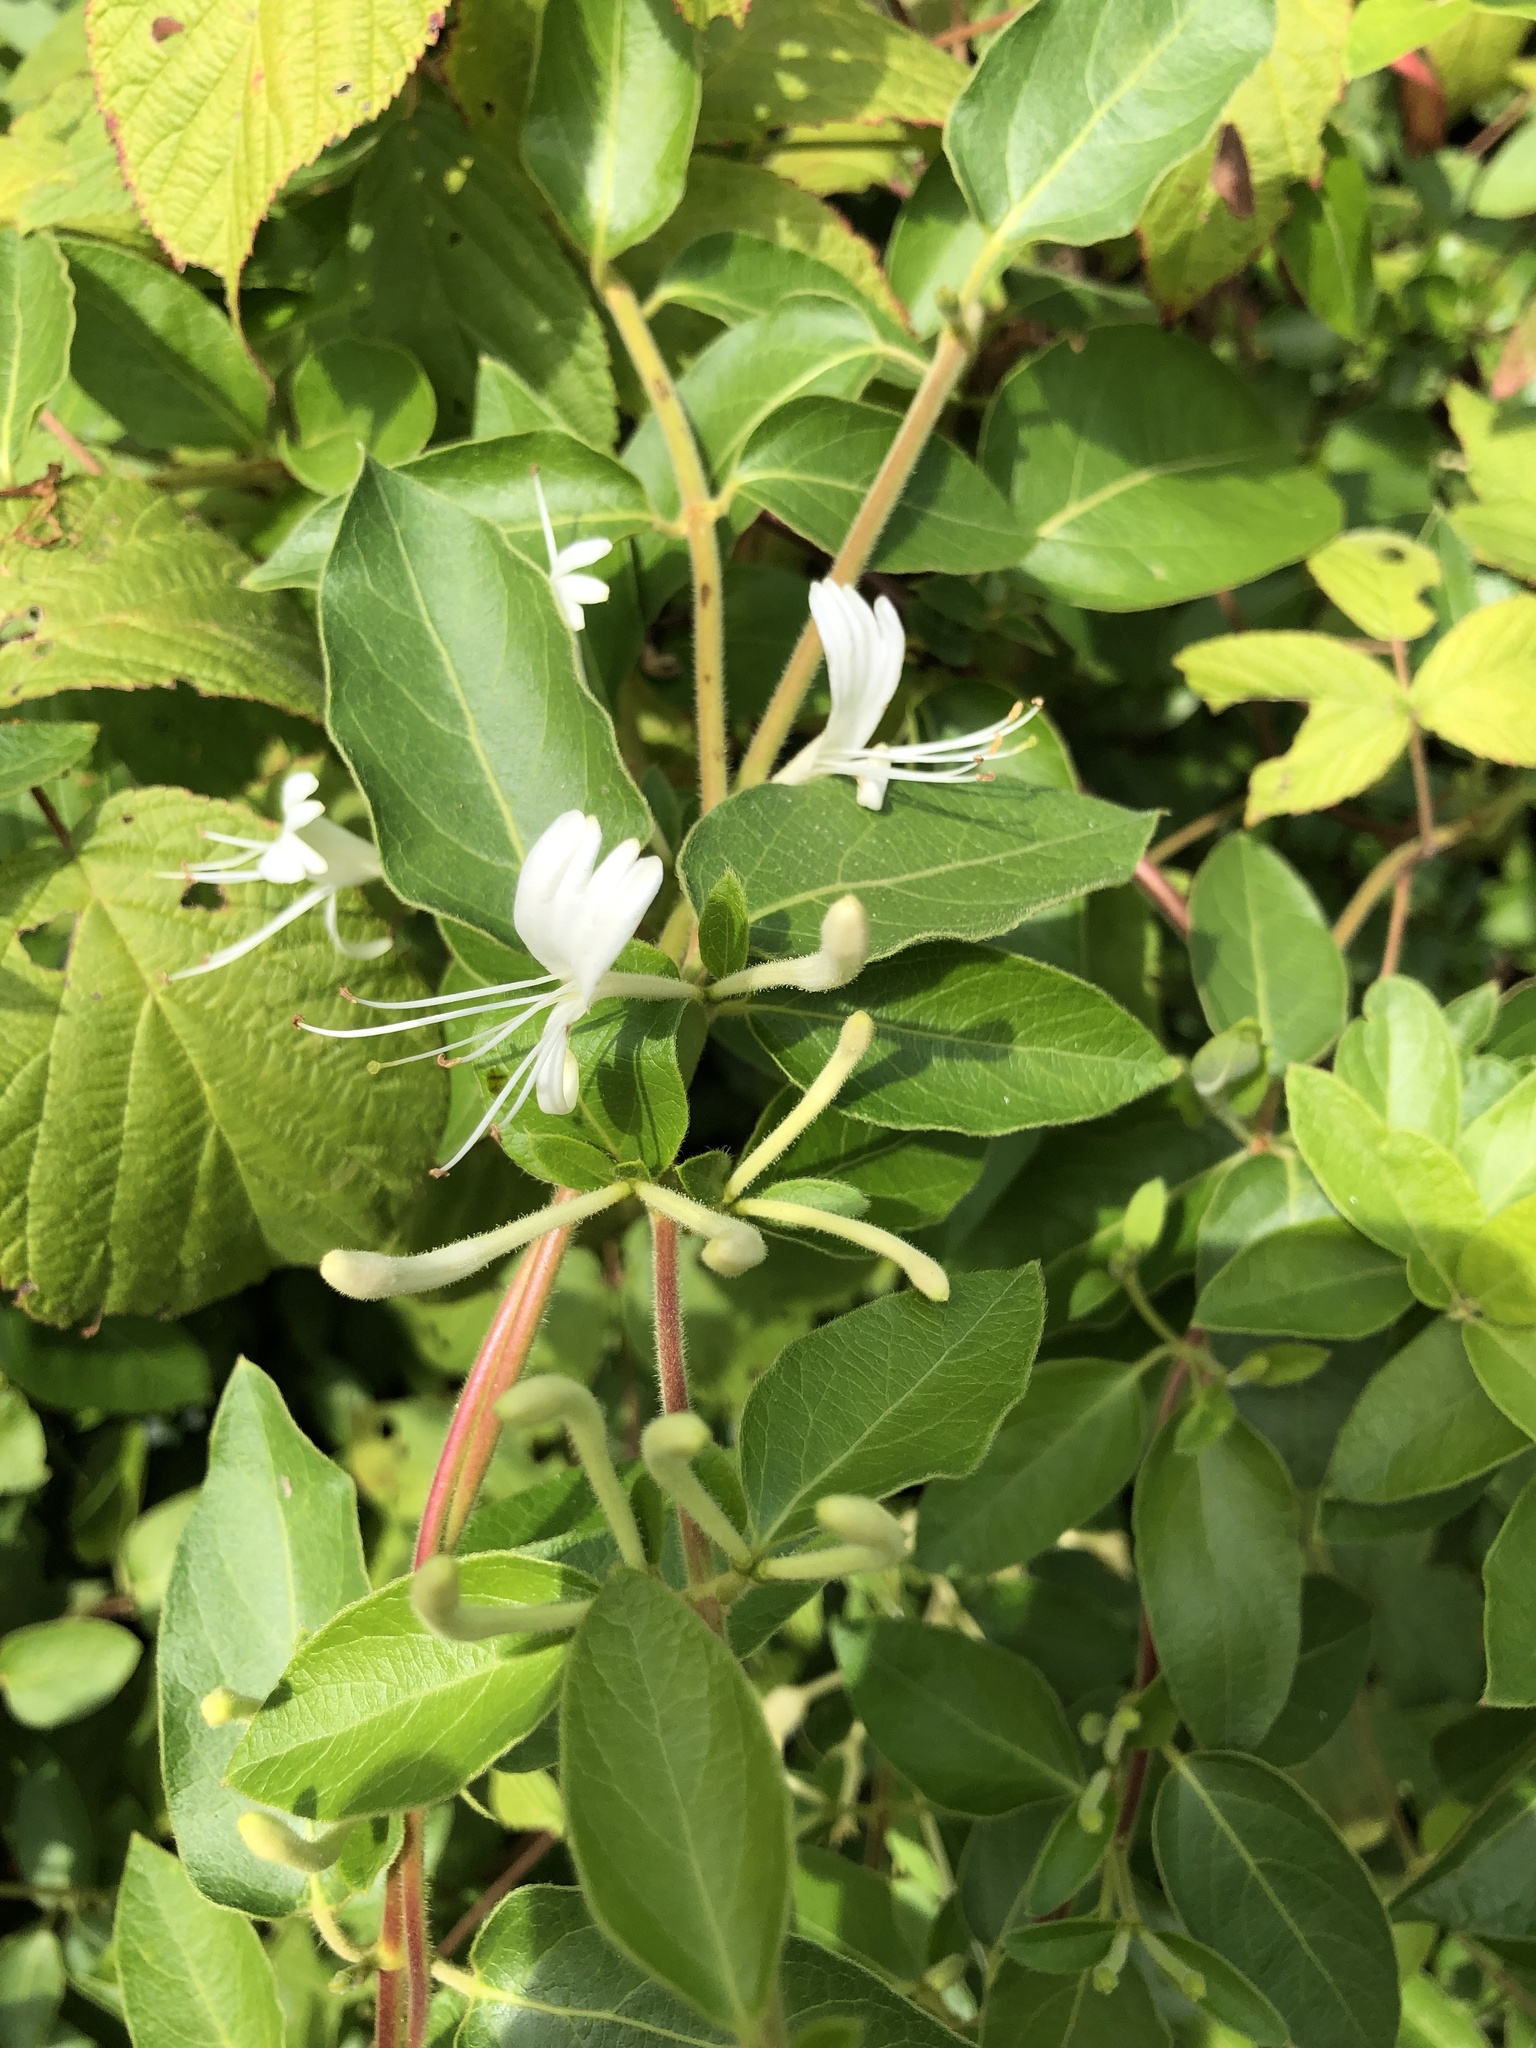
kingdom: Plantae
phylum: Tracheophyta
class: Magnoliopsida
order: Dipsacales
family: Caprifoliaceae
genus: Lonicera
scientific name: Lonicera japonica
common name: Japanese honeysuckle
